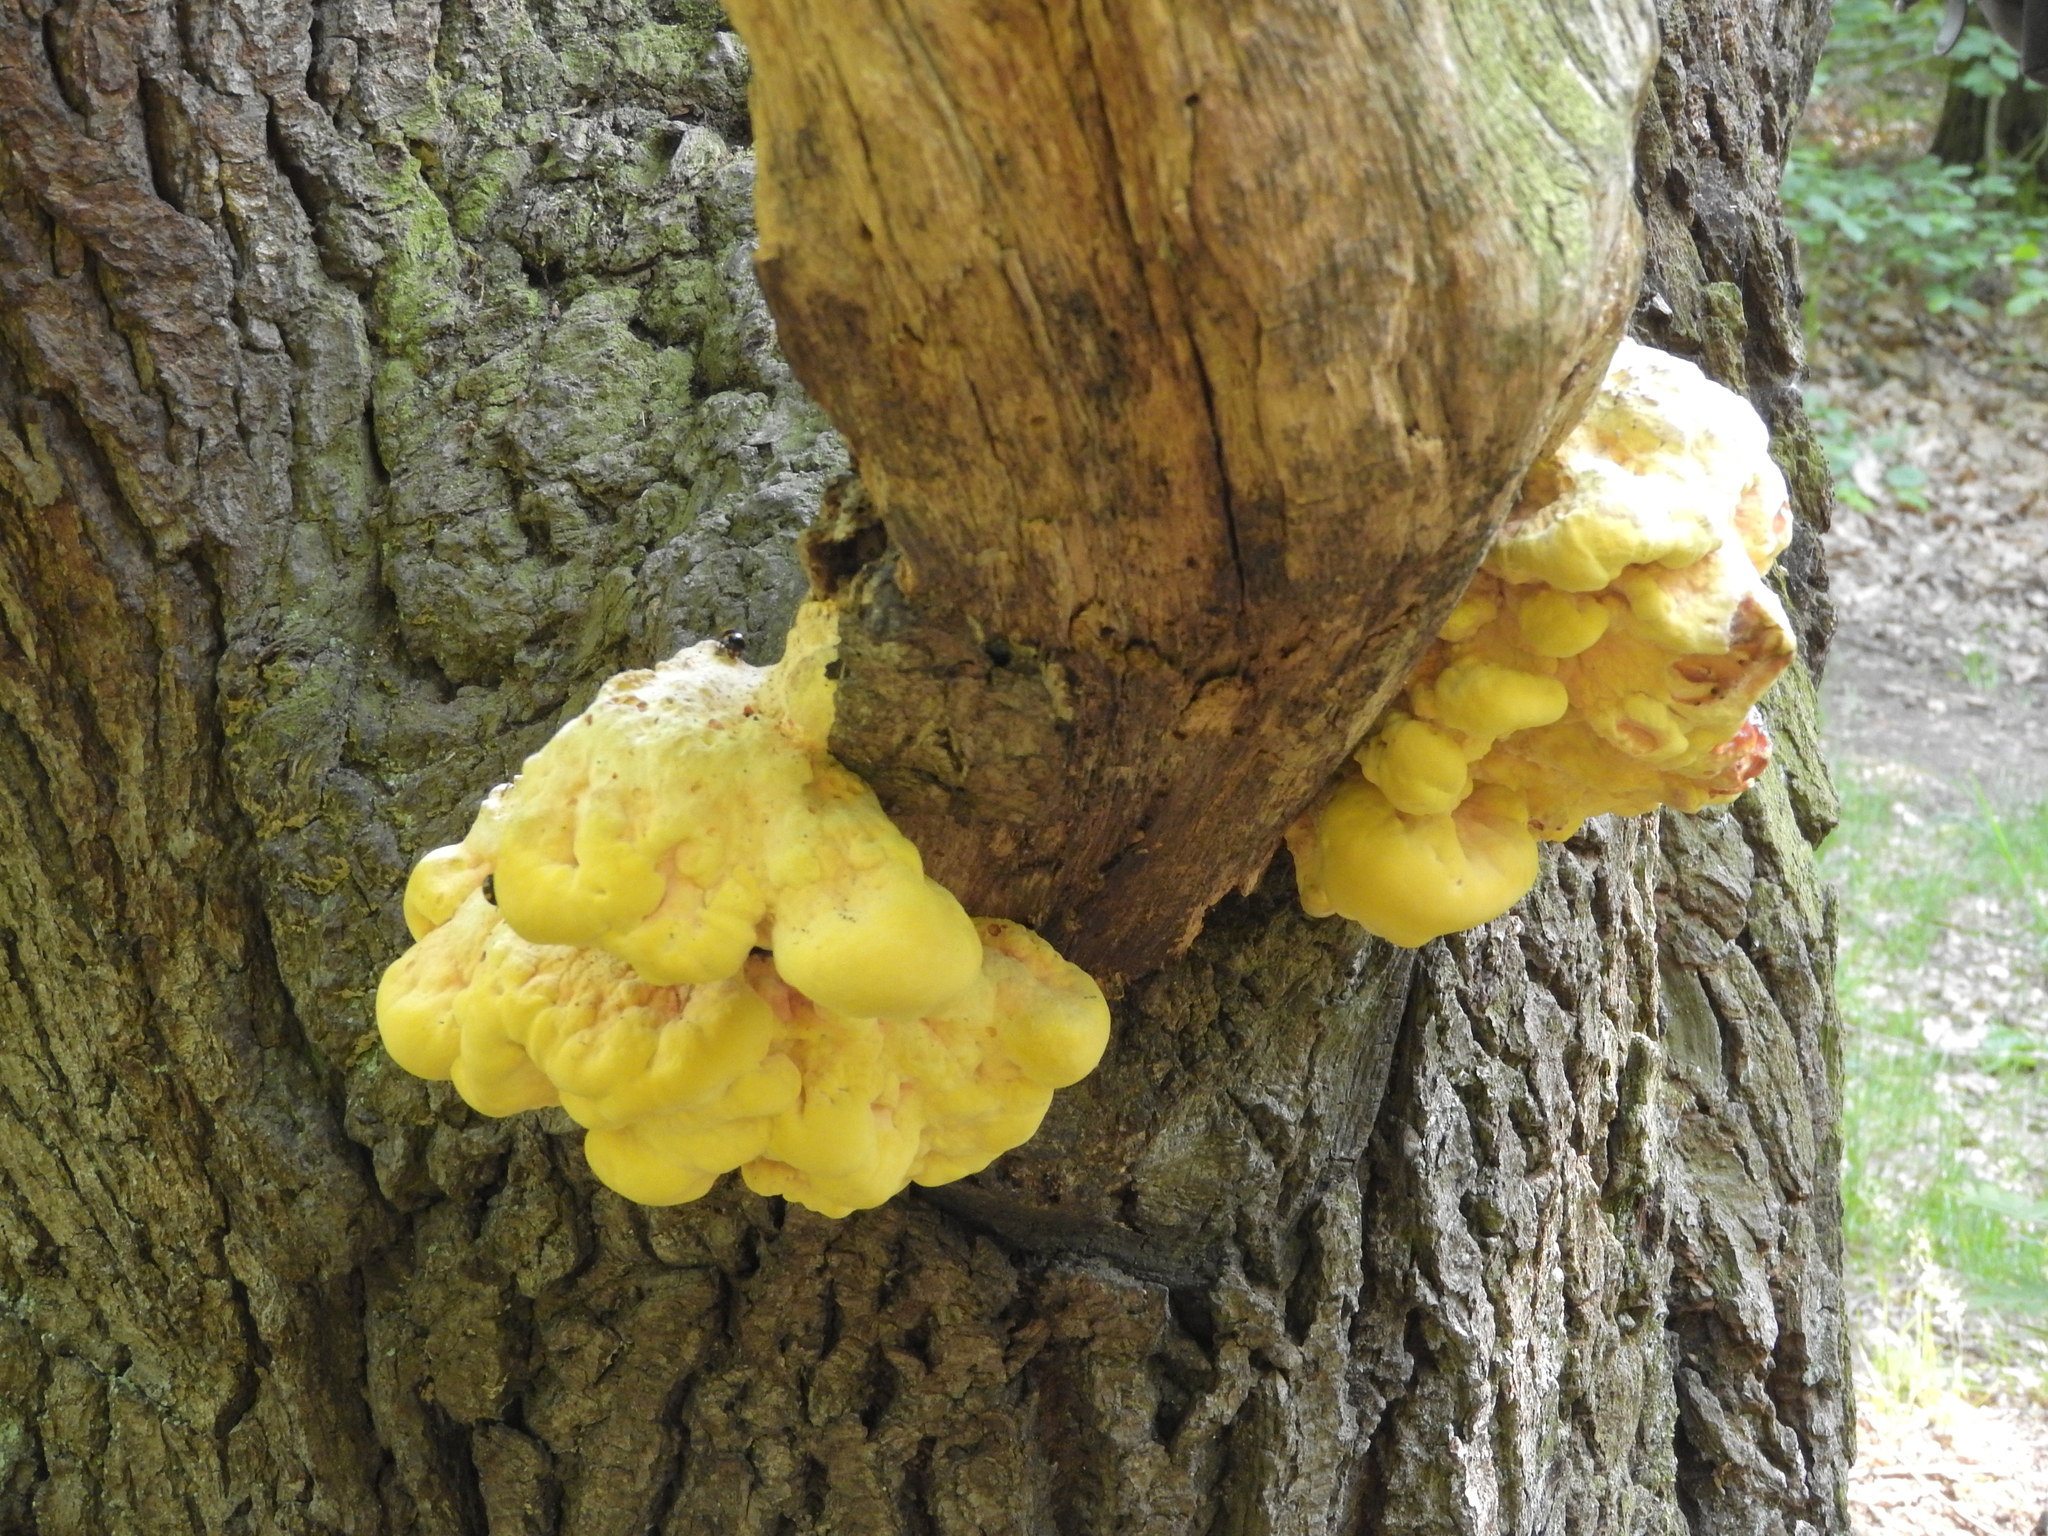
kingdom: Fungi
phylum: Basidiomycota
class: Agaricomycetes
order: Polyporales
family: Laetiporaceae
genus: Laetiporus
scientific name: Laetiporus sulphureus
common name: Chicken of the woods
